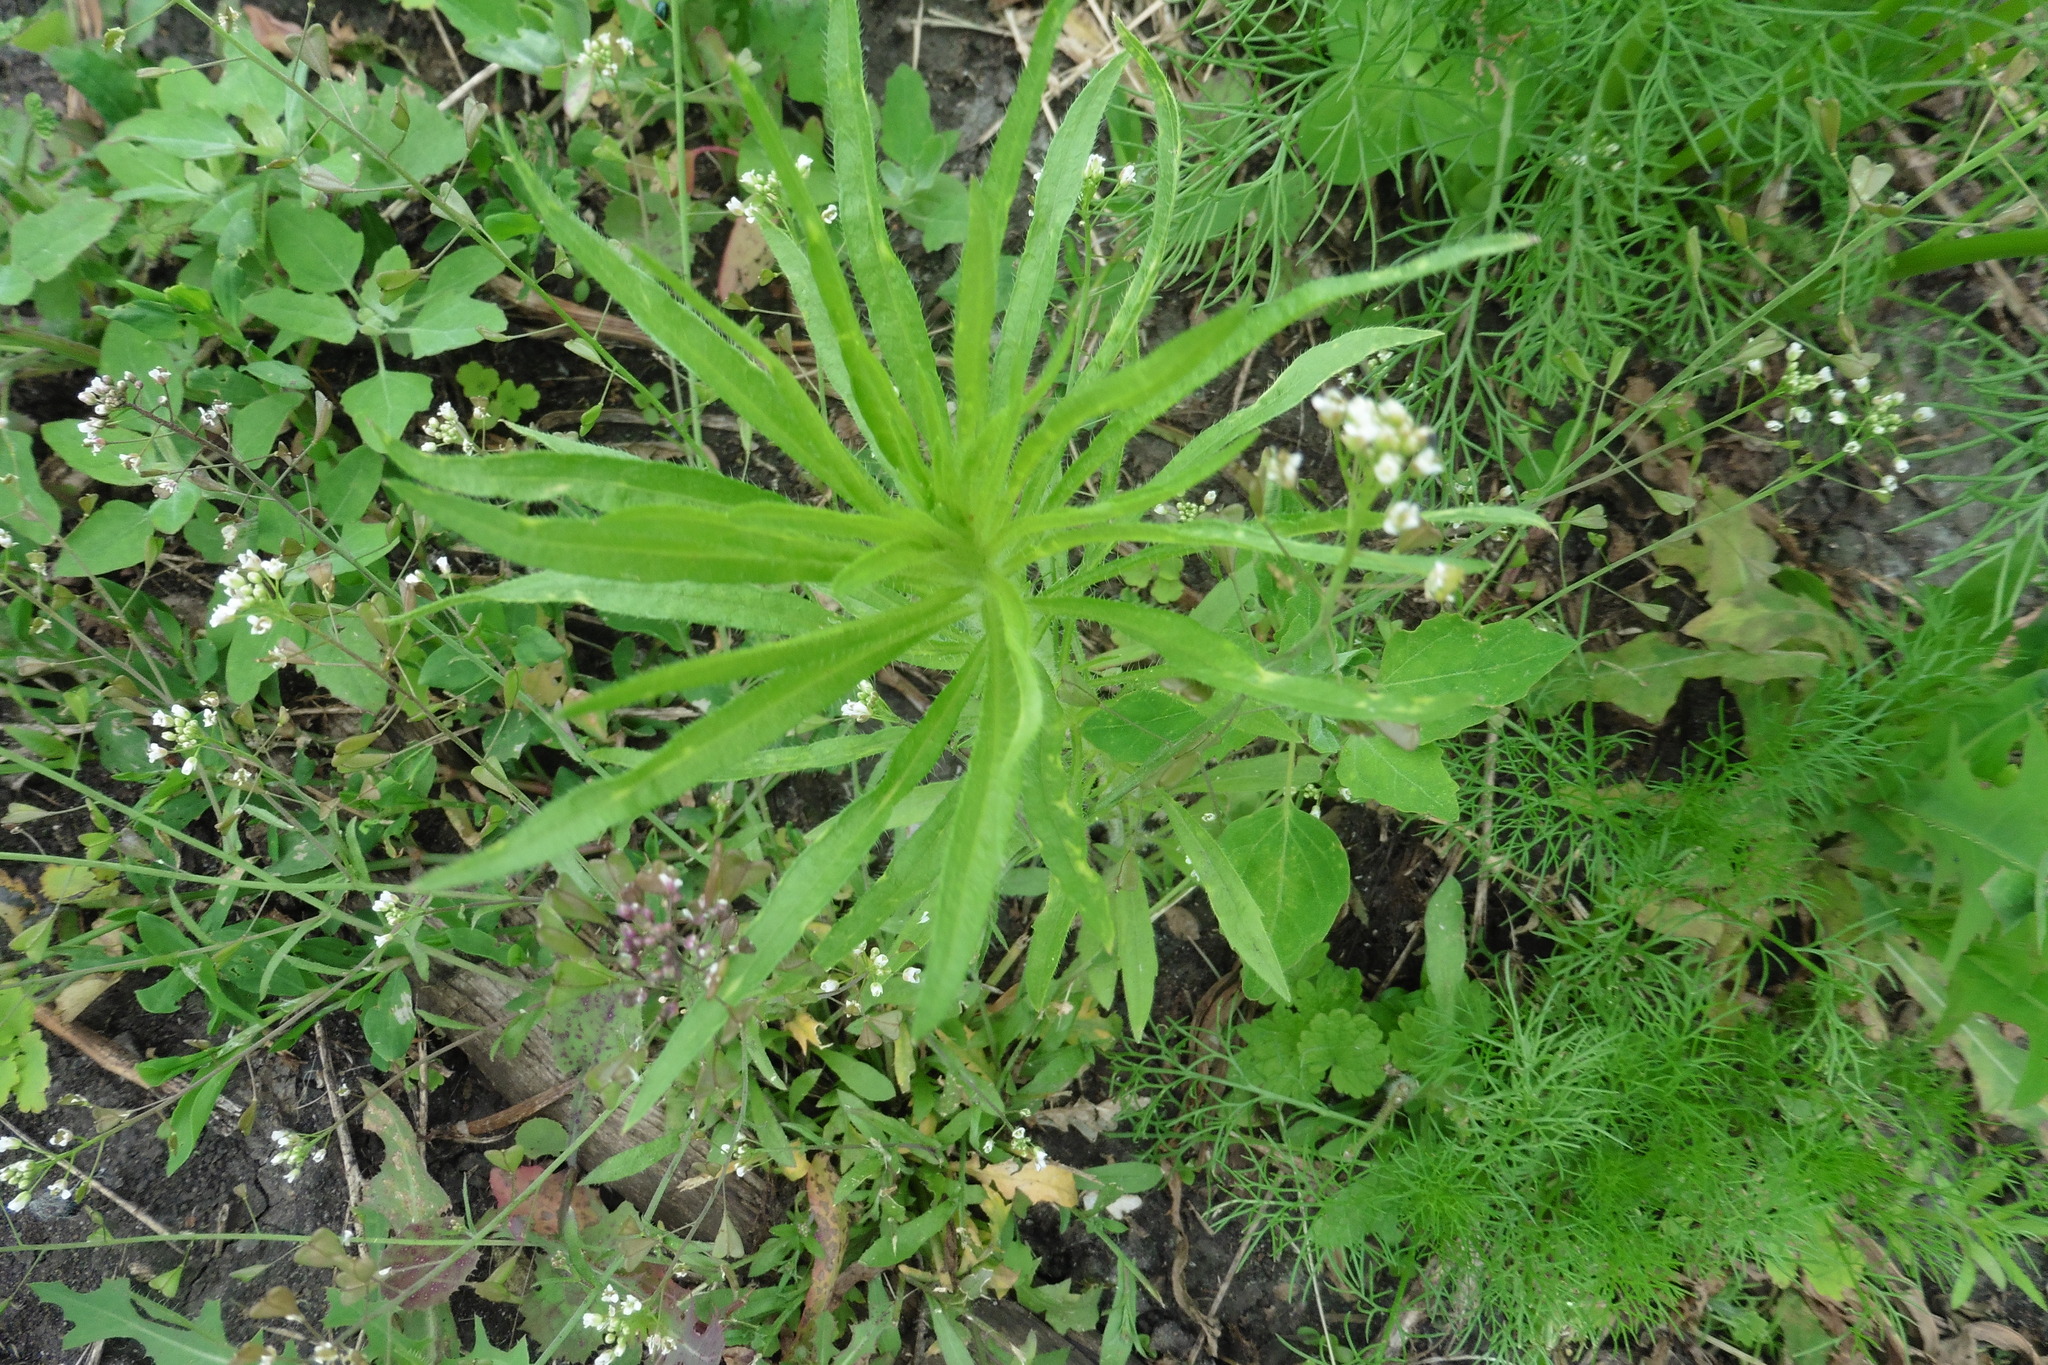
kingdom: Plantae
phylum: Tracheophyta
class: Magnoliopsida
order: Asterales
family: Asteraceae
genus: Erigeron
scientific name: Erigeron canadensis
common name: Canadian fleabane
